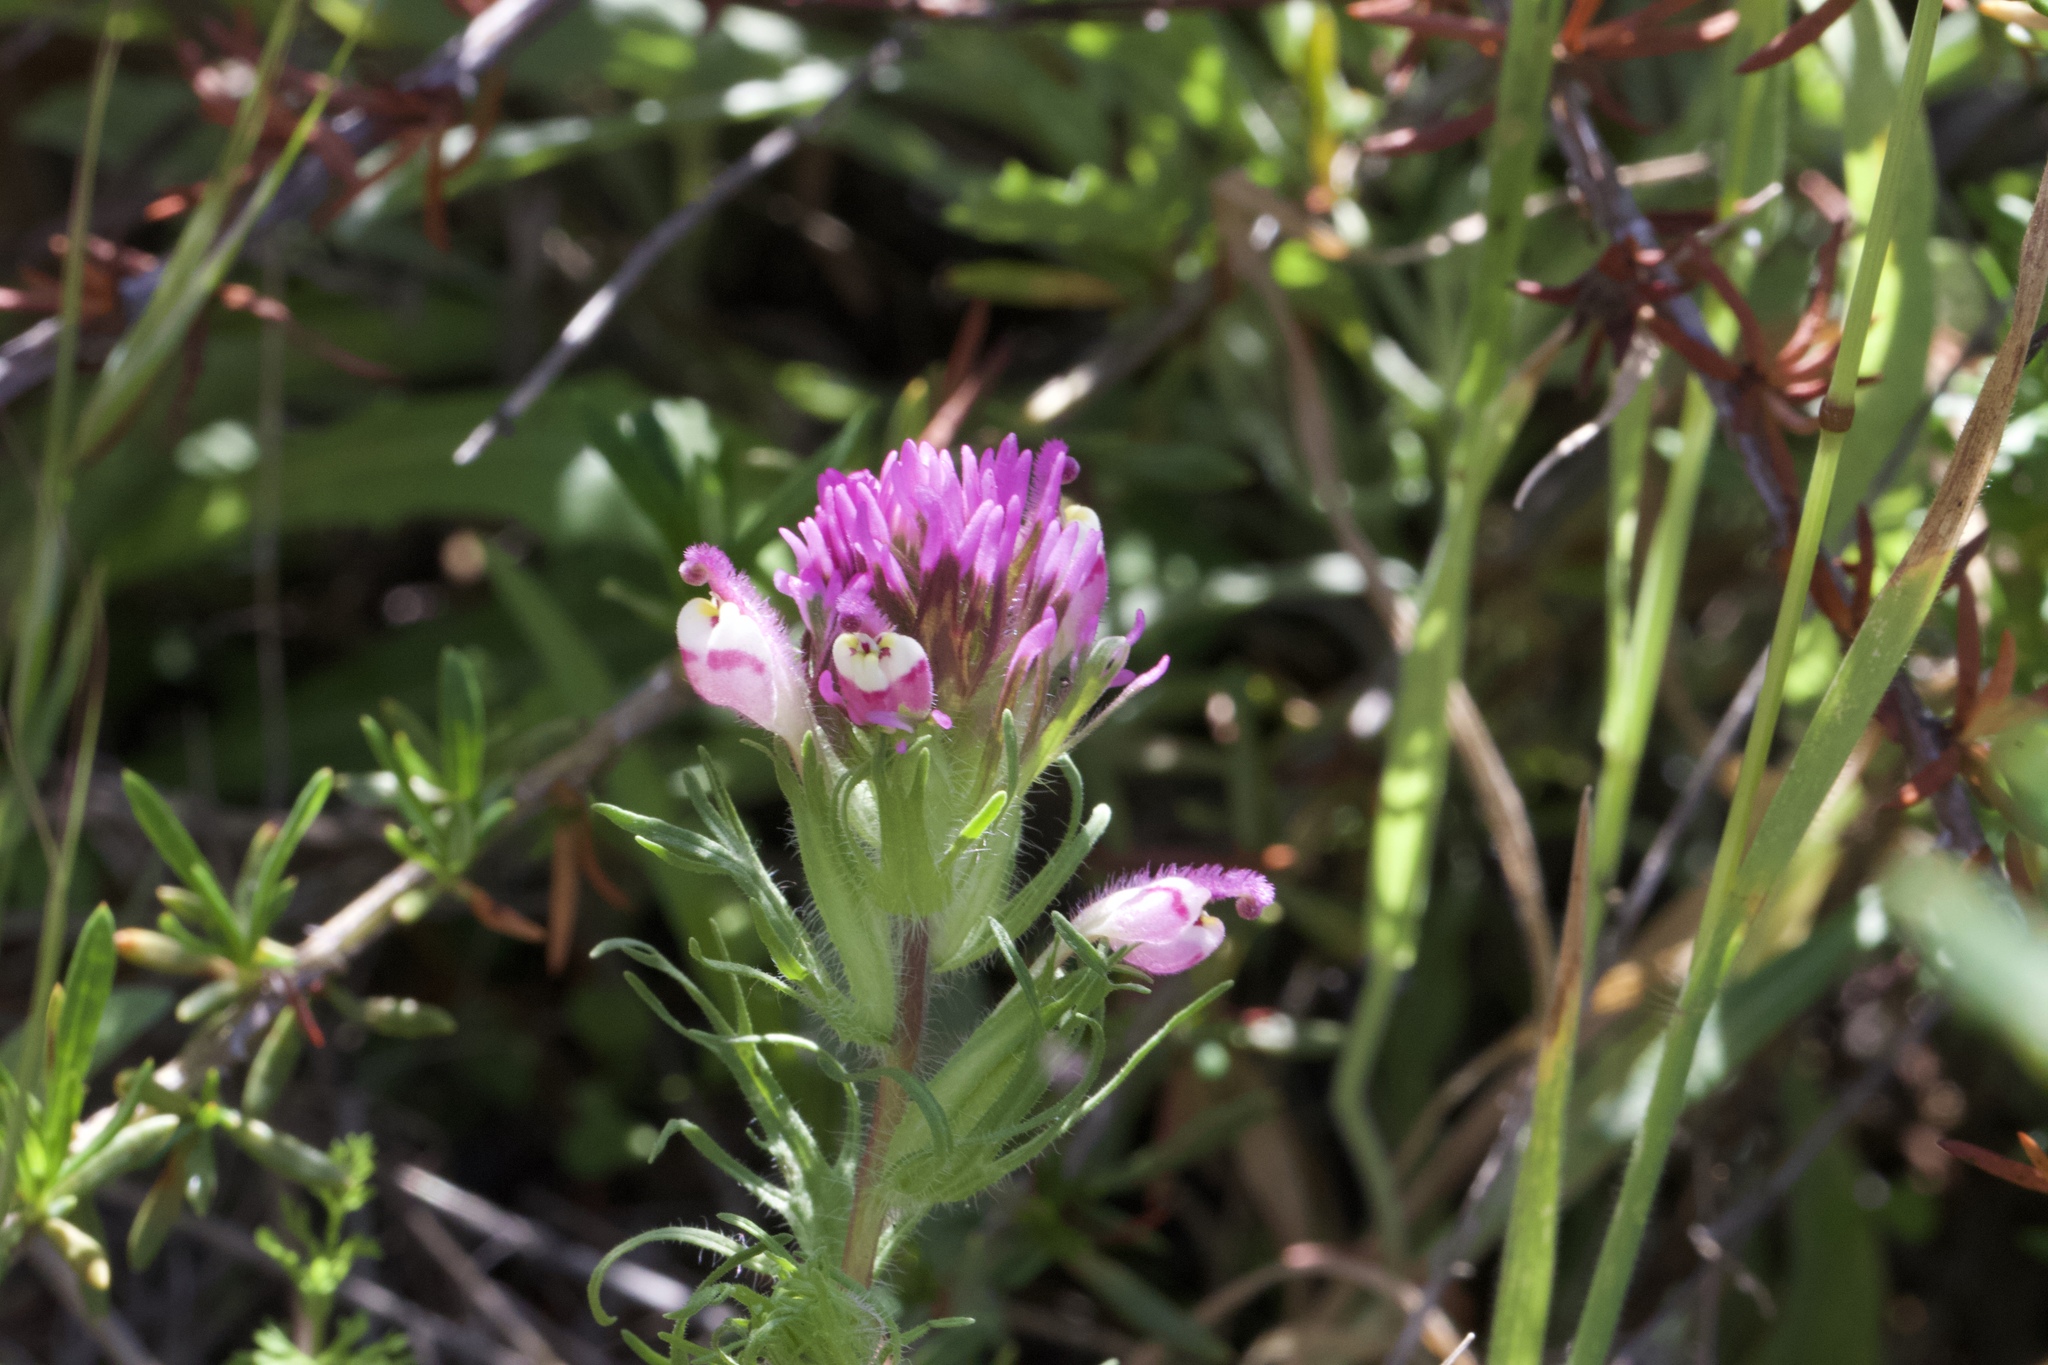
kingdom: Plantae
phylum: Tracheophyta
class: Magnoliopsida
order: Lamiales
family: Orobanchaceae
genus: Castilleja
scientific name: Castilleja exserta
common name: Purple owl-clover
